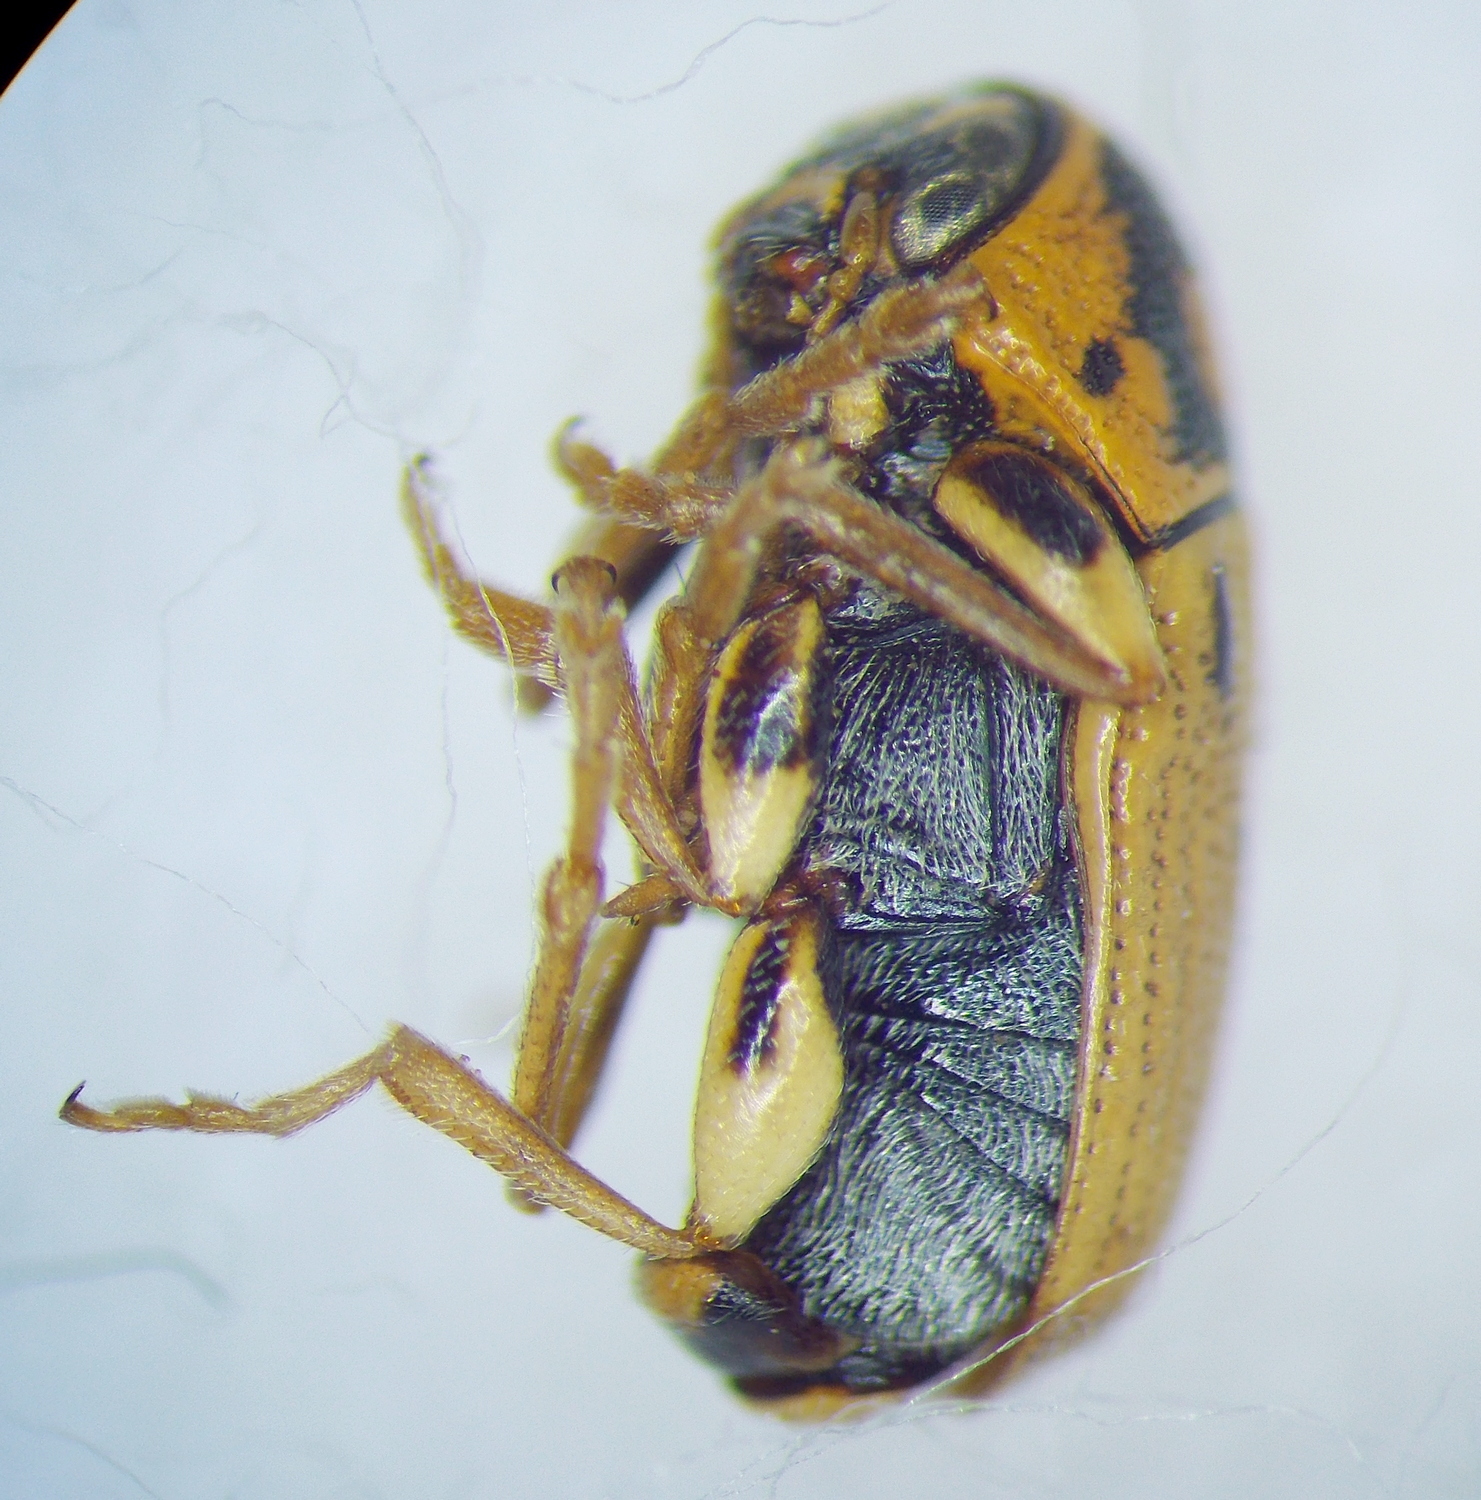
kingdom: Animalia
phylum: Arthropoda
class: Insecta
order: Coleoptera
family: Chrysomelidae
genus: Cryptocephalus
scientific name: Cryptocephalus gamma
